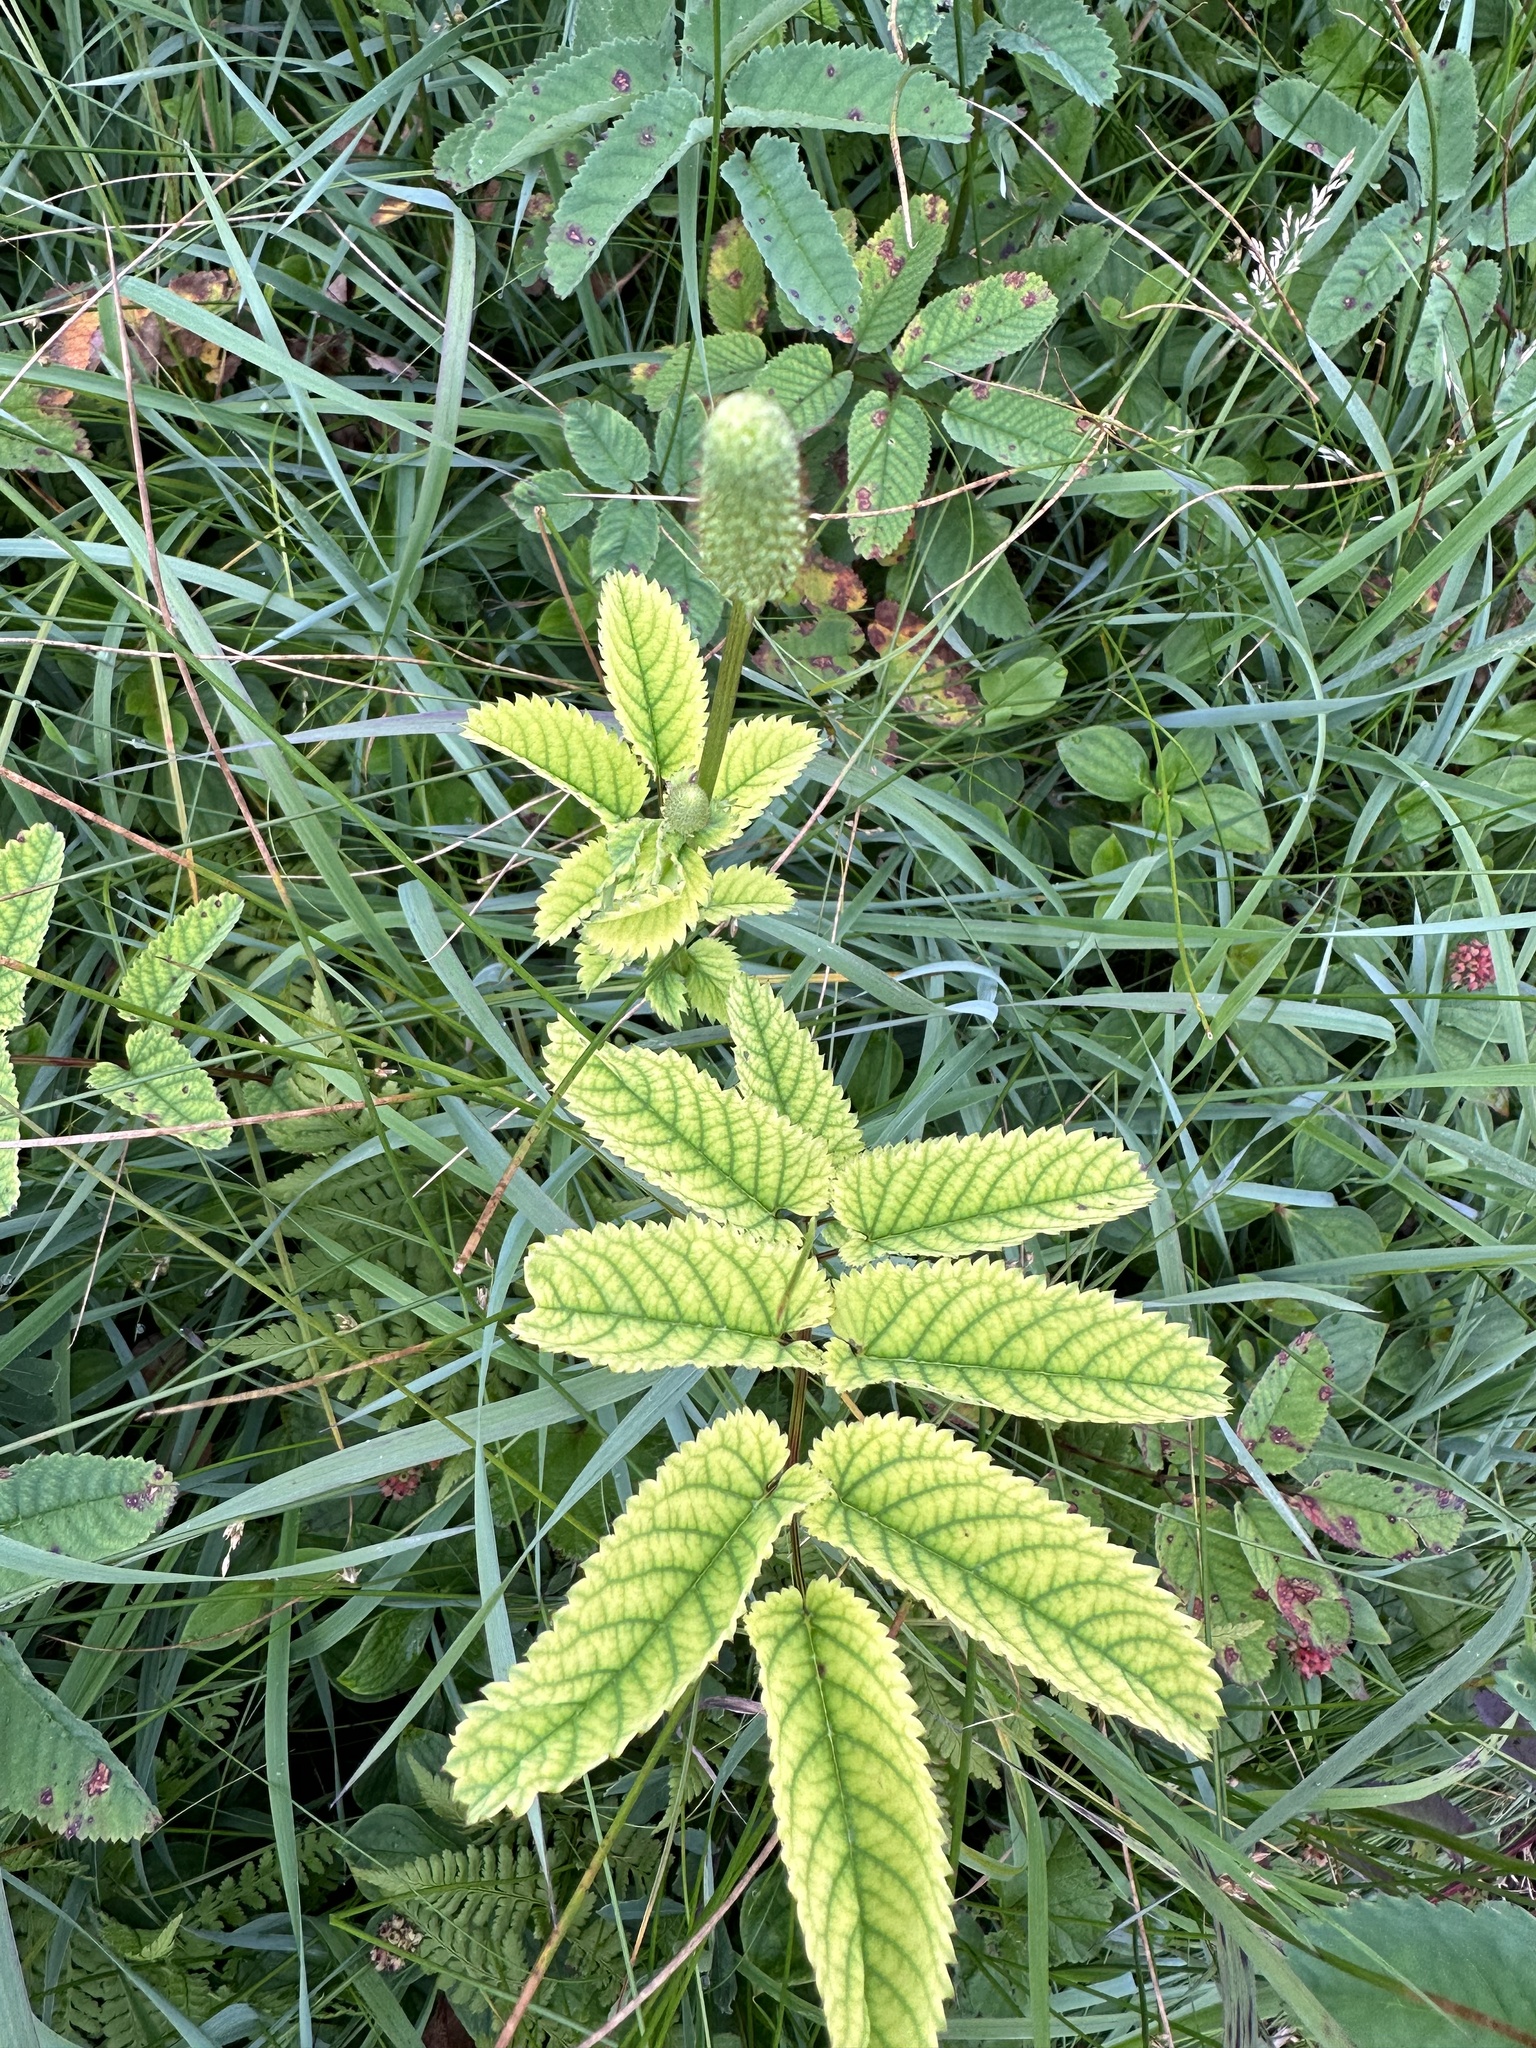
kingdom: Plantae
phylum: Tracheophyta
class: Magnoliopsida
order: Rosales
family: Rosaceae
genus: Sanguisorba
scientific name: Sanguisorba canadensis
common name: White burnet
